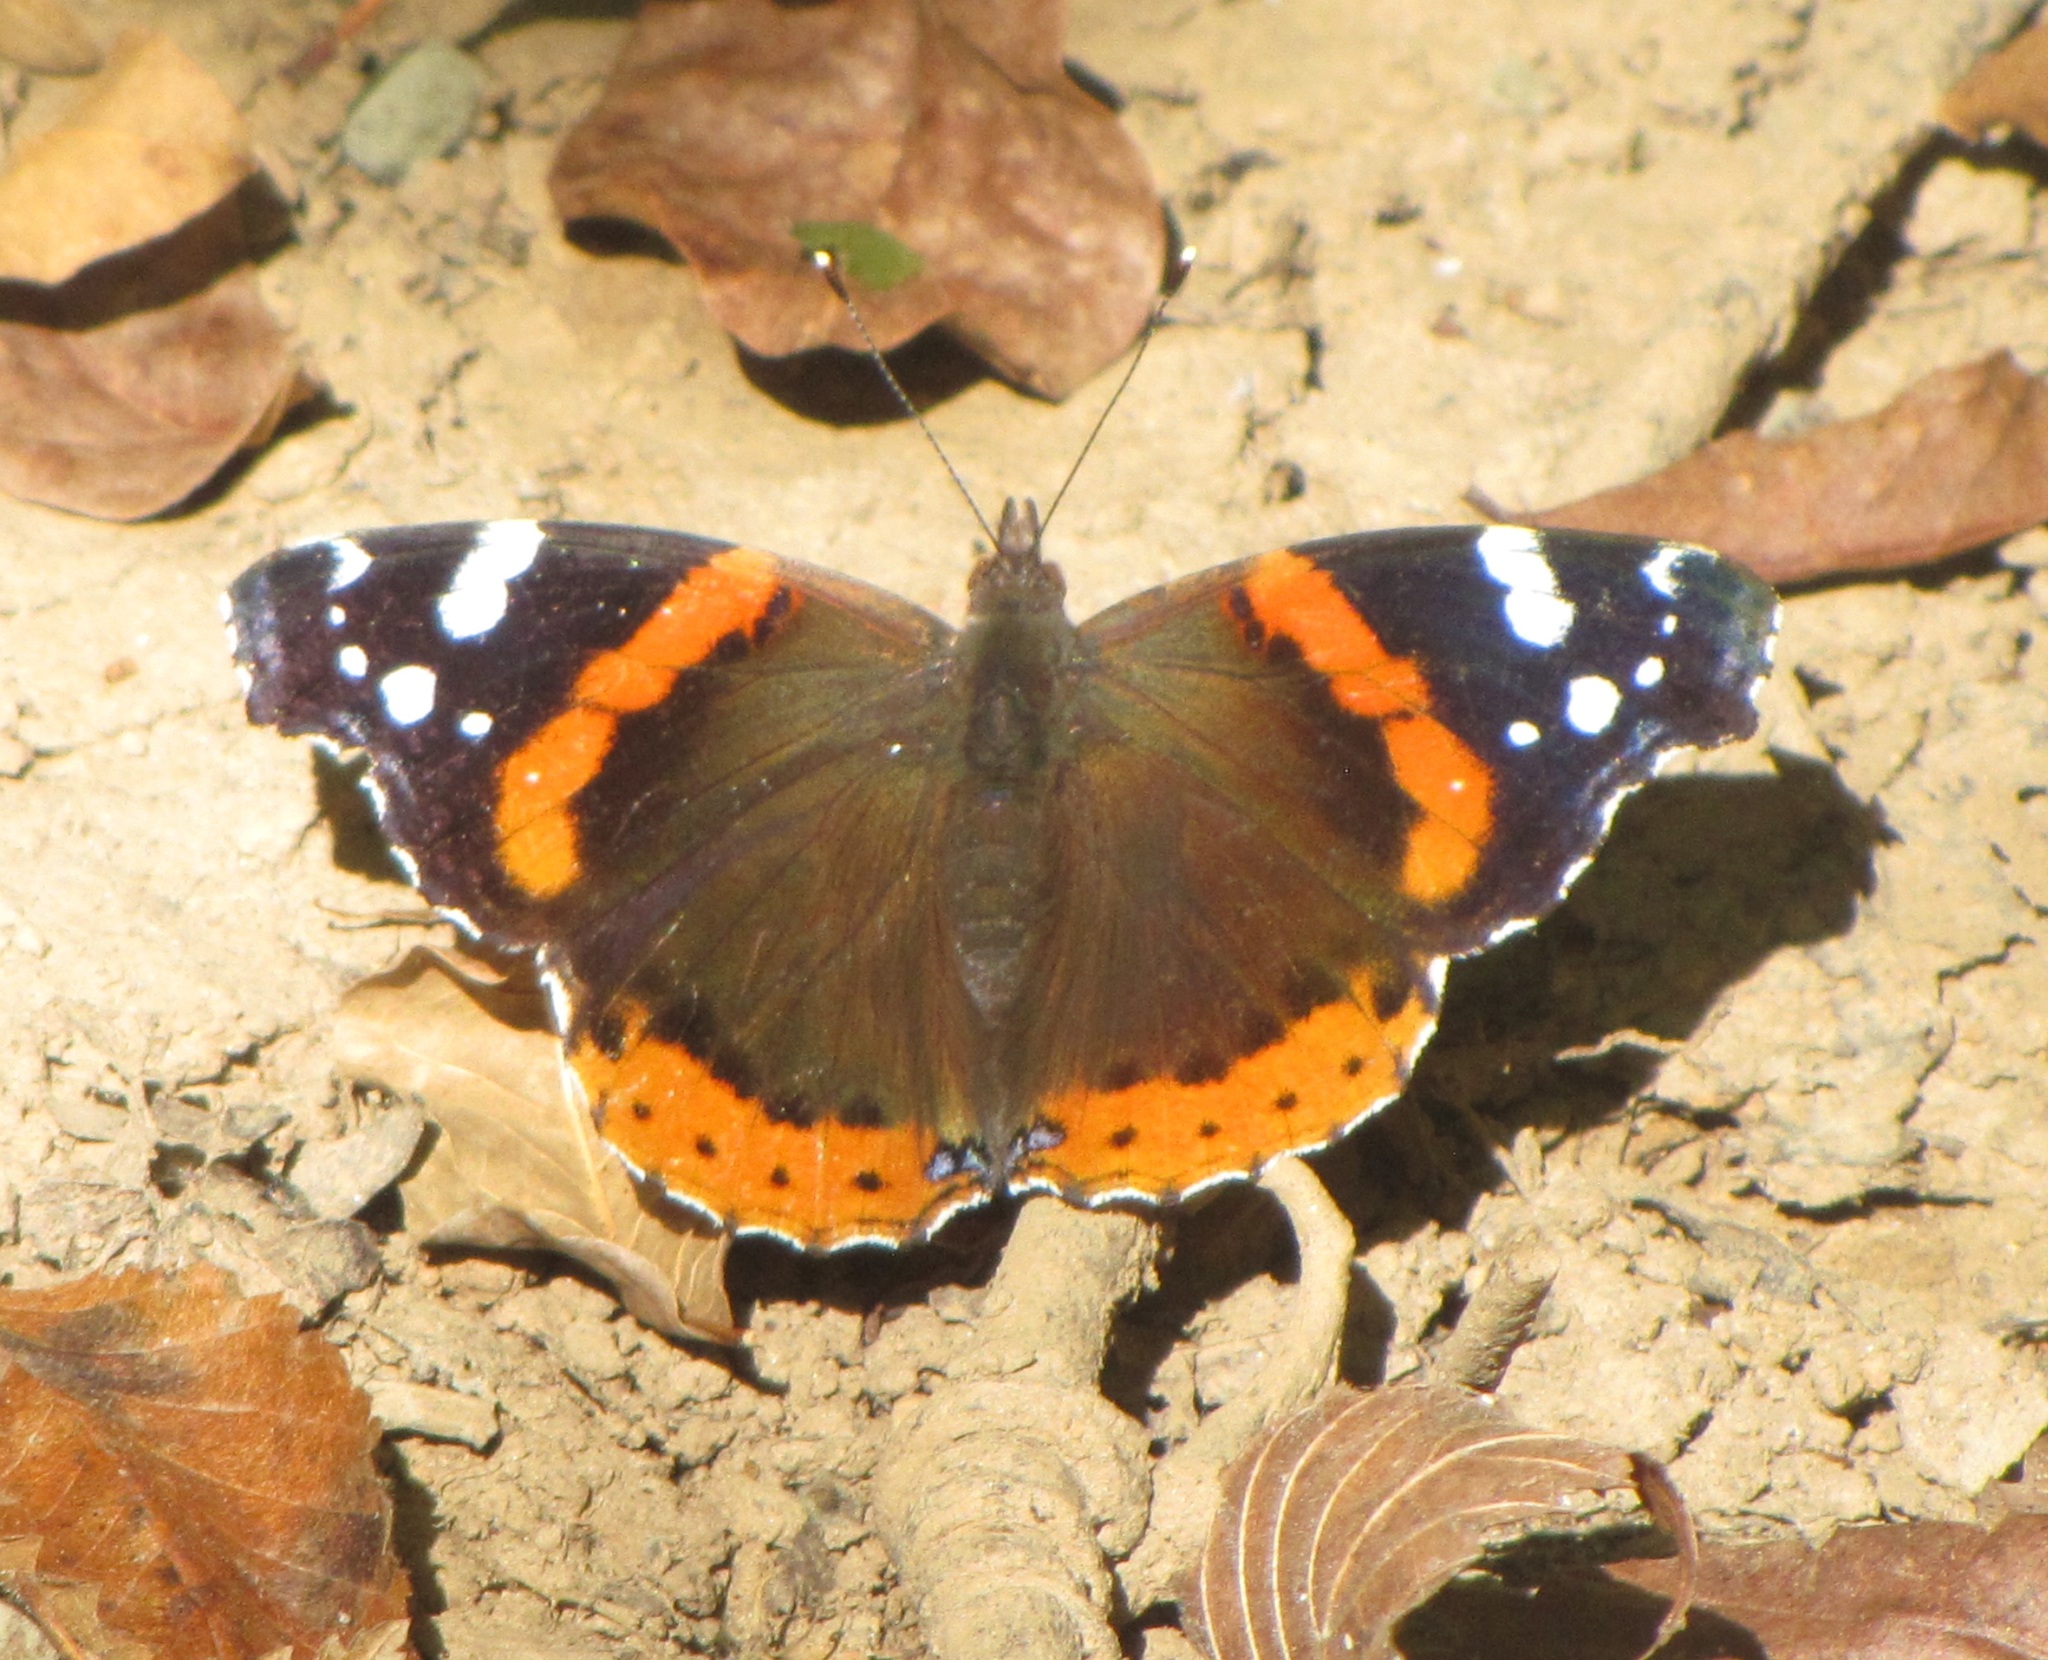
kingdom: Animalia
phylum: Arthropoda
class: Insecta
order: Lepidoptera
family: Nymphalidae
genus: Vanessa
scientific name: Vanessa atalanta
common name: Red admiral
